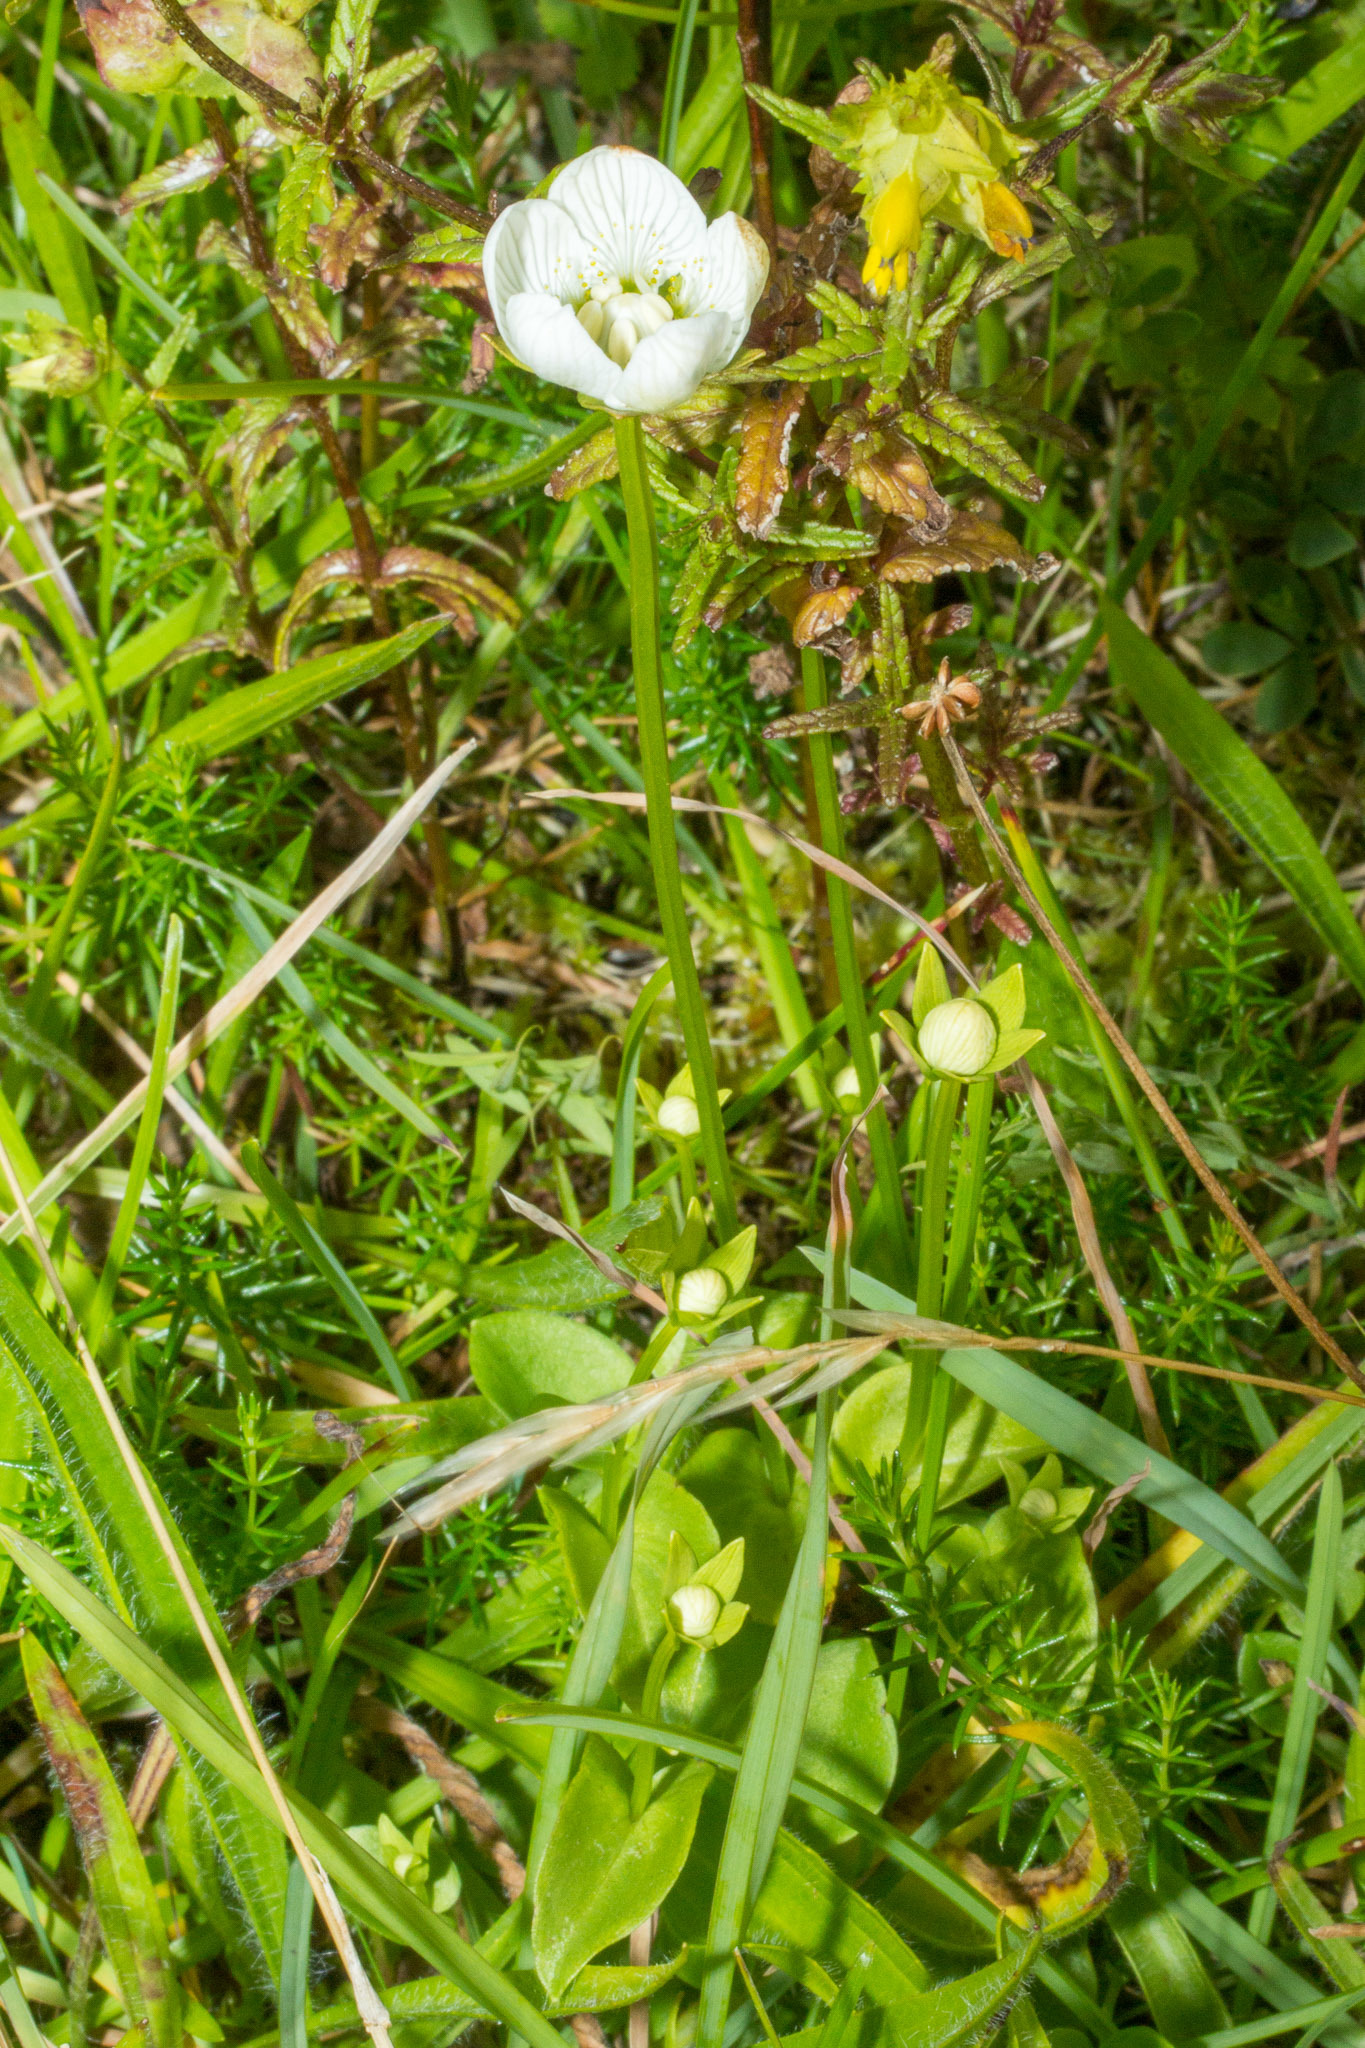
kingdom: Plantae
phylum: Tracheophyta
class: Magnoliopsida
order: Celastrales
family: Parnassiaceae
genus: Parnassia
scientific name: Parnassia palustris
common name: Grass-of-parnassus
